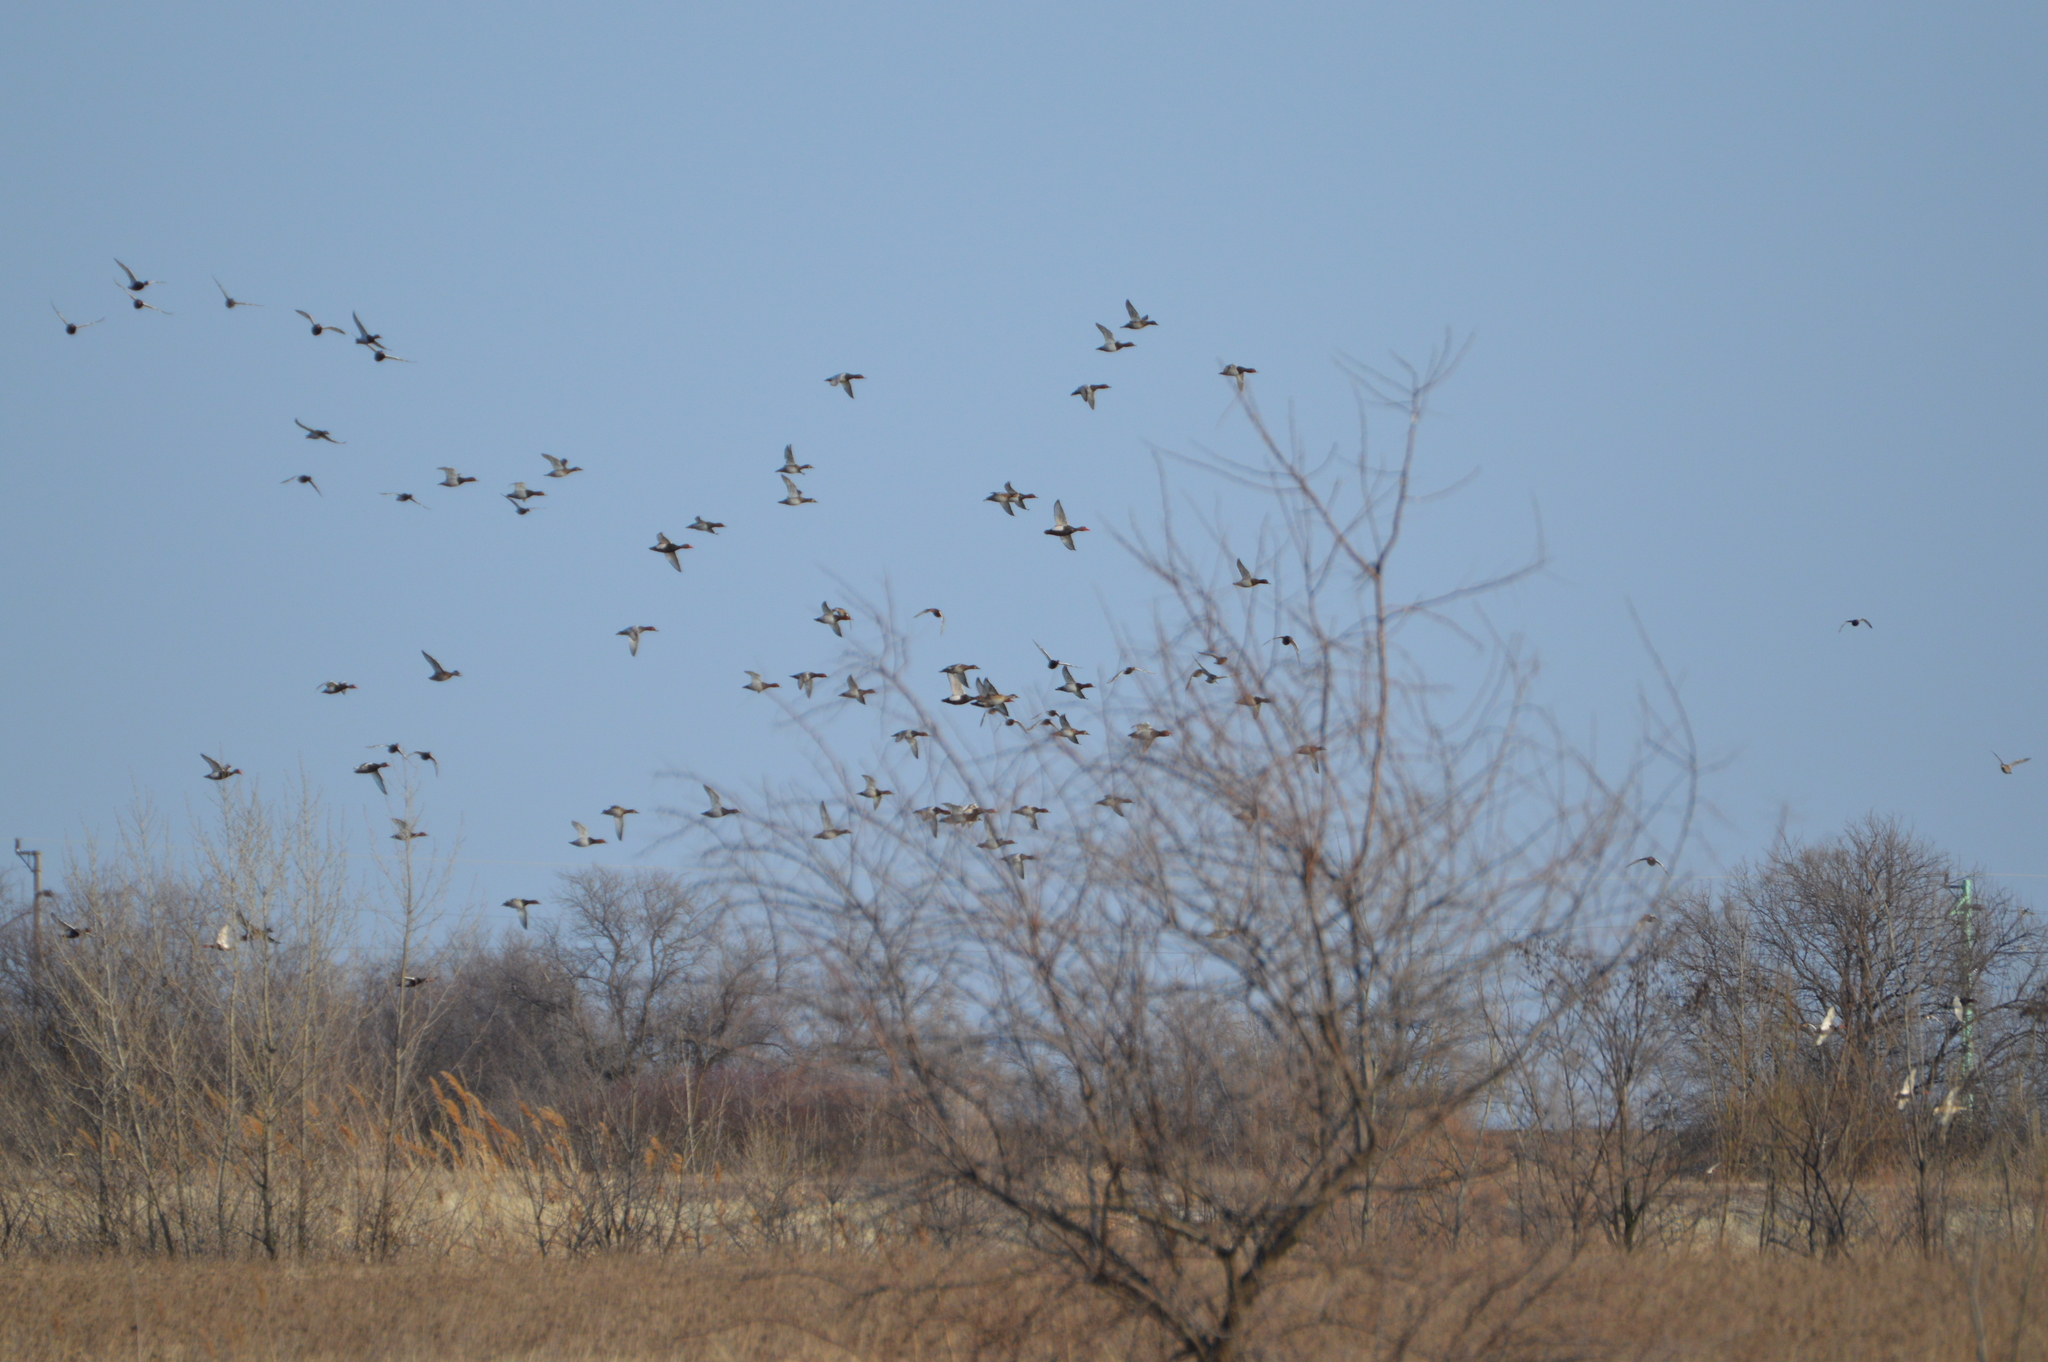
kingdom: Animalia
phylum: Chordata
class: Aves
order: Anseriformes
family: Anatidae
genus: Aythya
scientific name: Aythya ferina
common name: Common pochard
